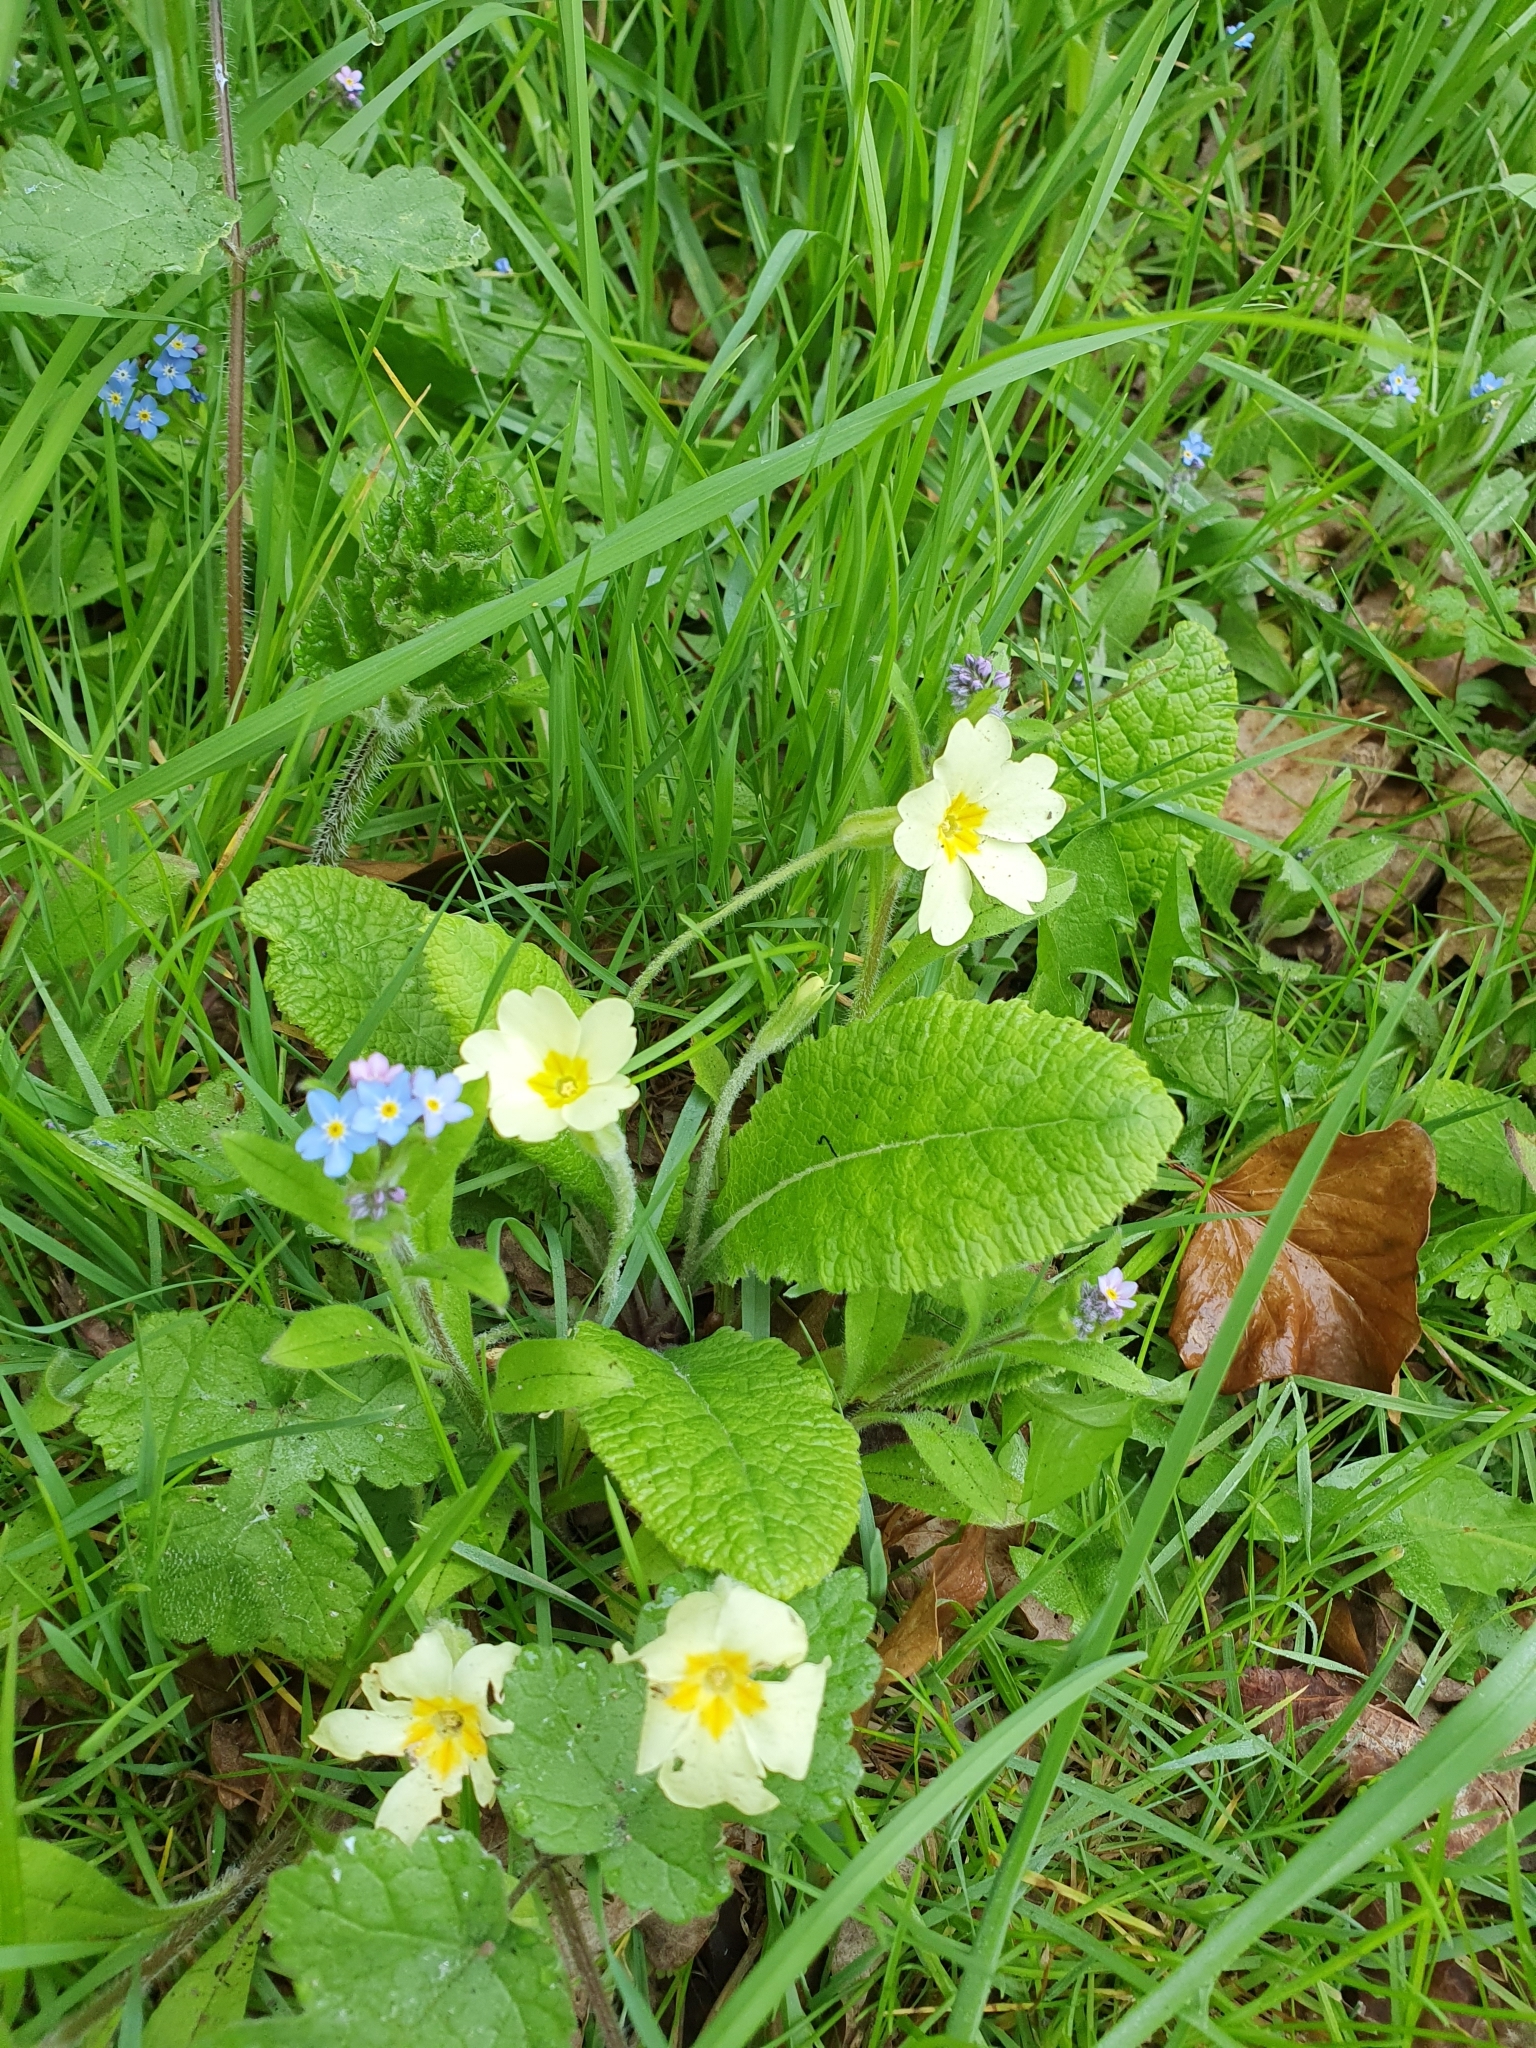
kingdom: Plantae
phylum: Tracheophyta
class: Magnoliopsida
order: Ericales
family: Primulaceae
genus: Primula
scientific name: Primula vulgaris
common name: Primrose
